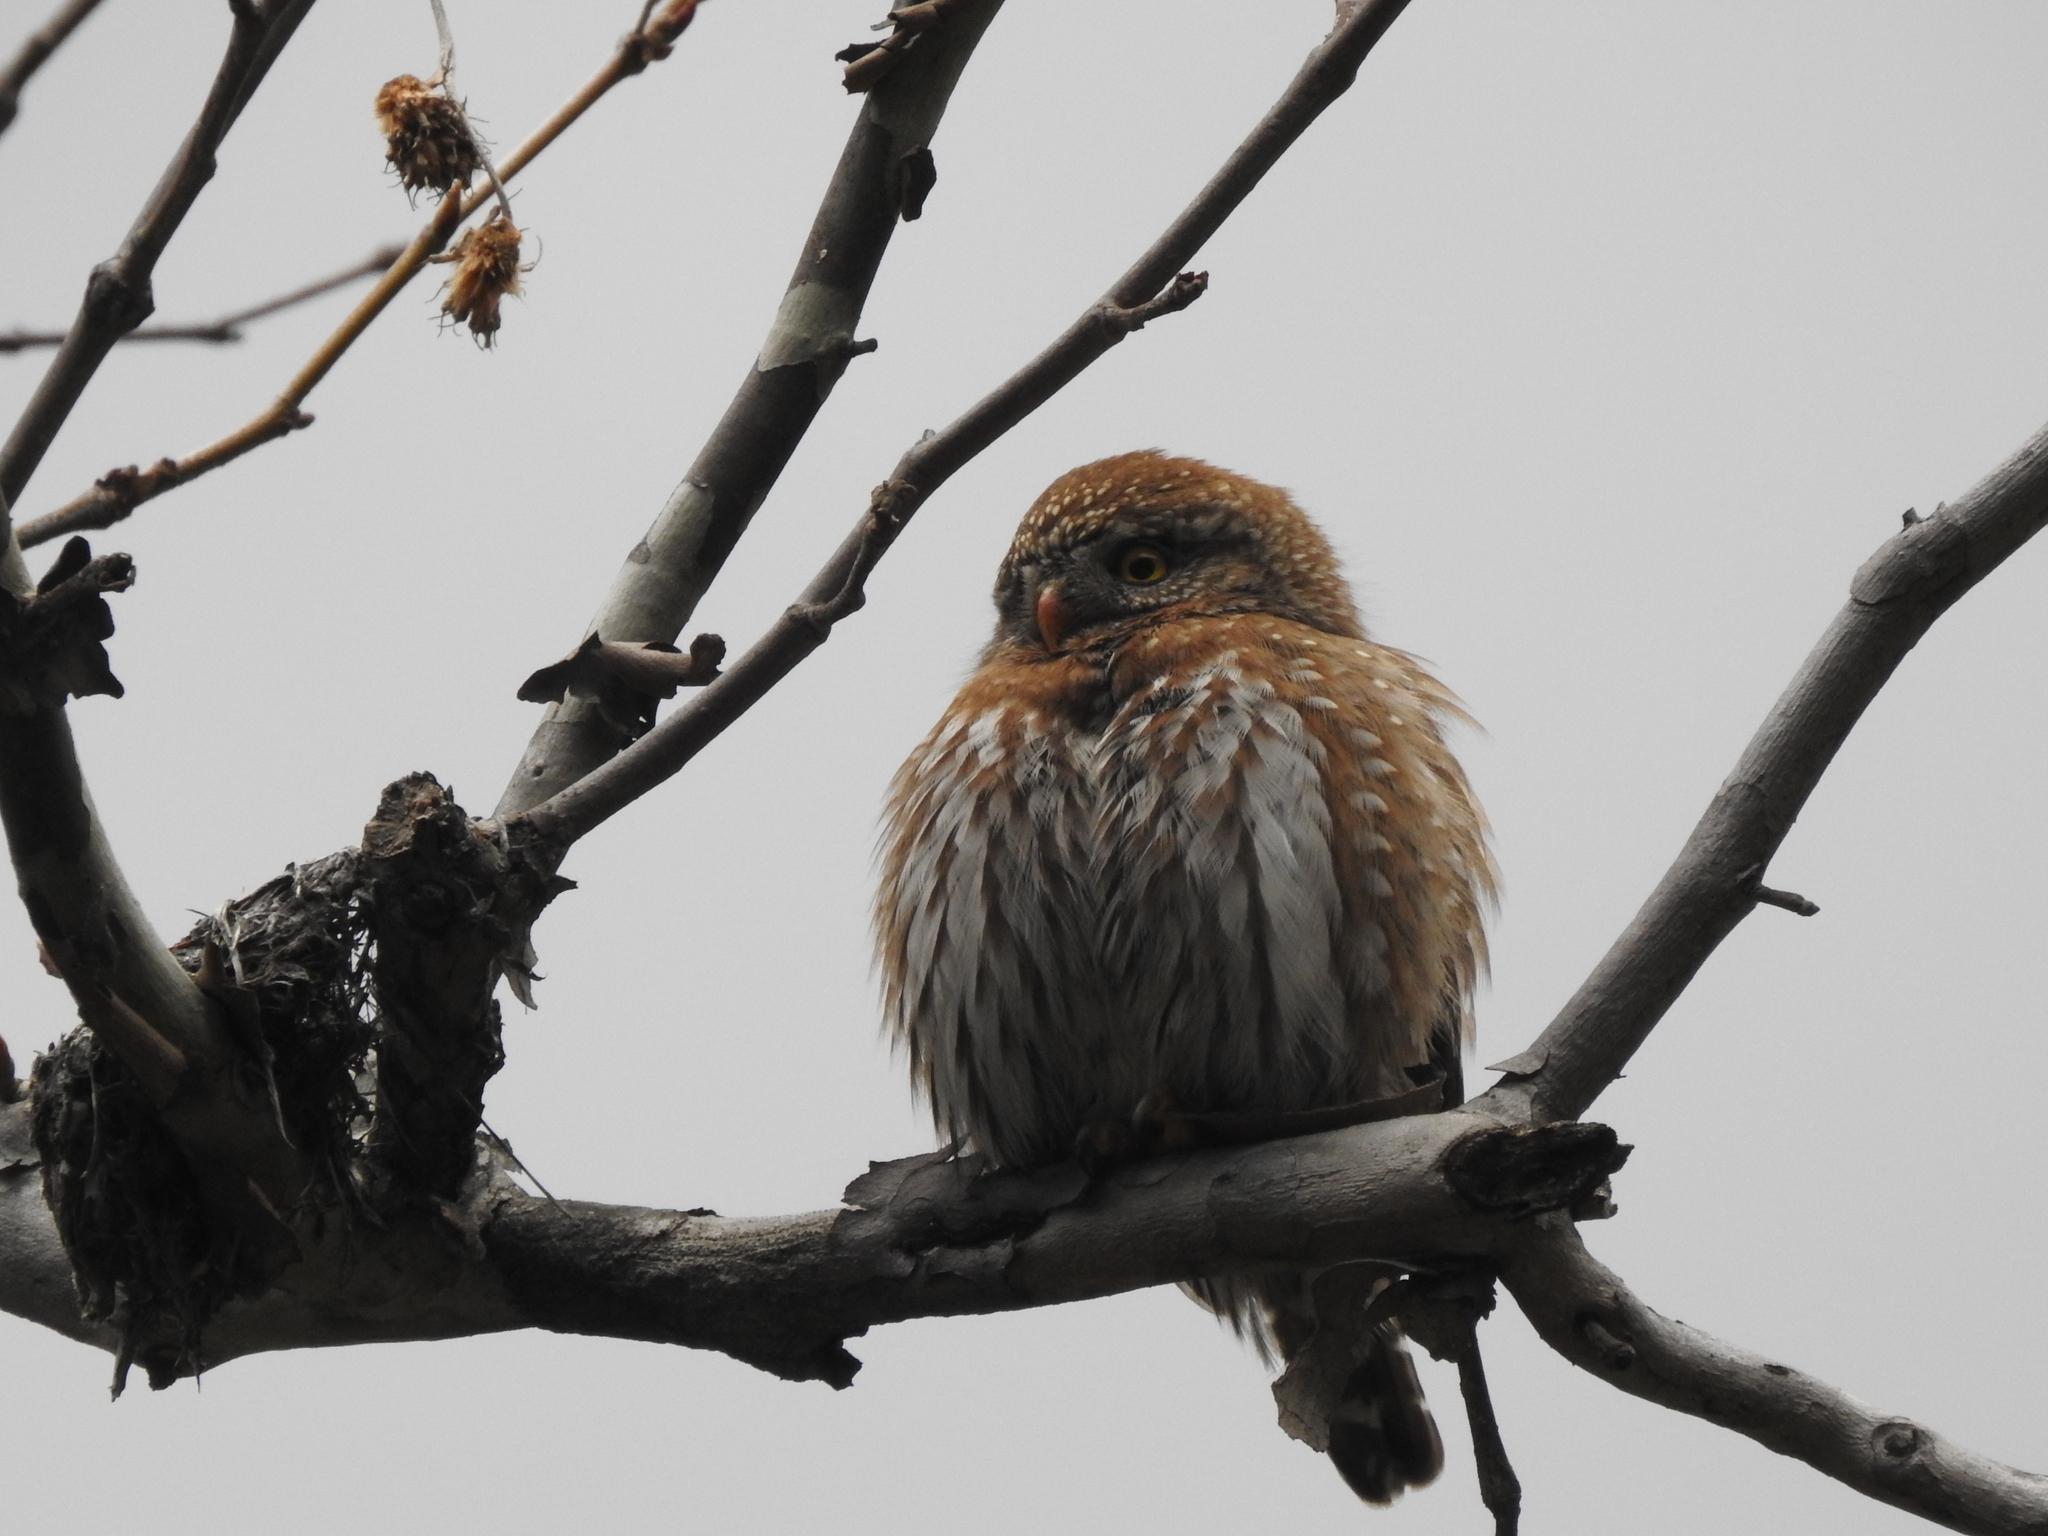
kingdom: Animalia
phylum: Chordata
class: Aves
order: Strigiformes
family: Strigidae
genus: Glaucidium
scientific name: Glaucidium gnoma
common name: Northern pygmy-owl
